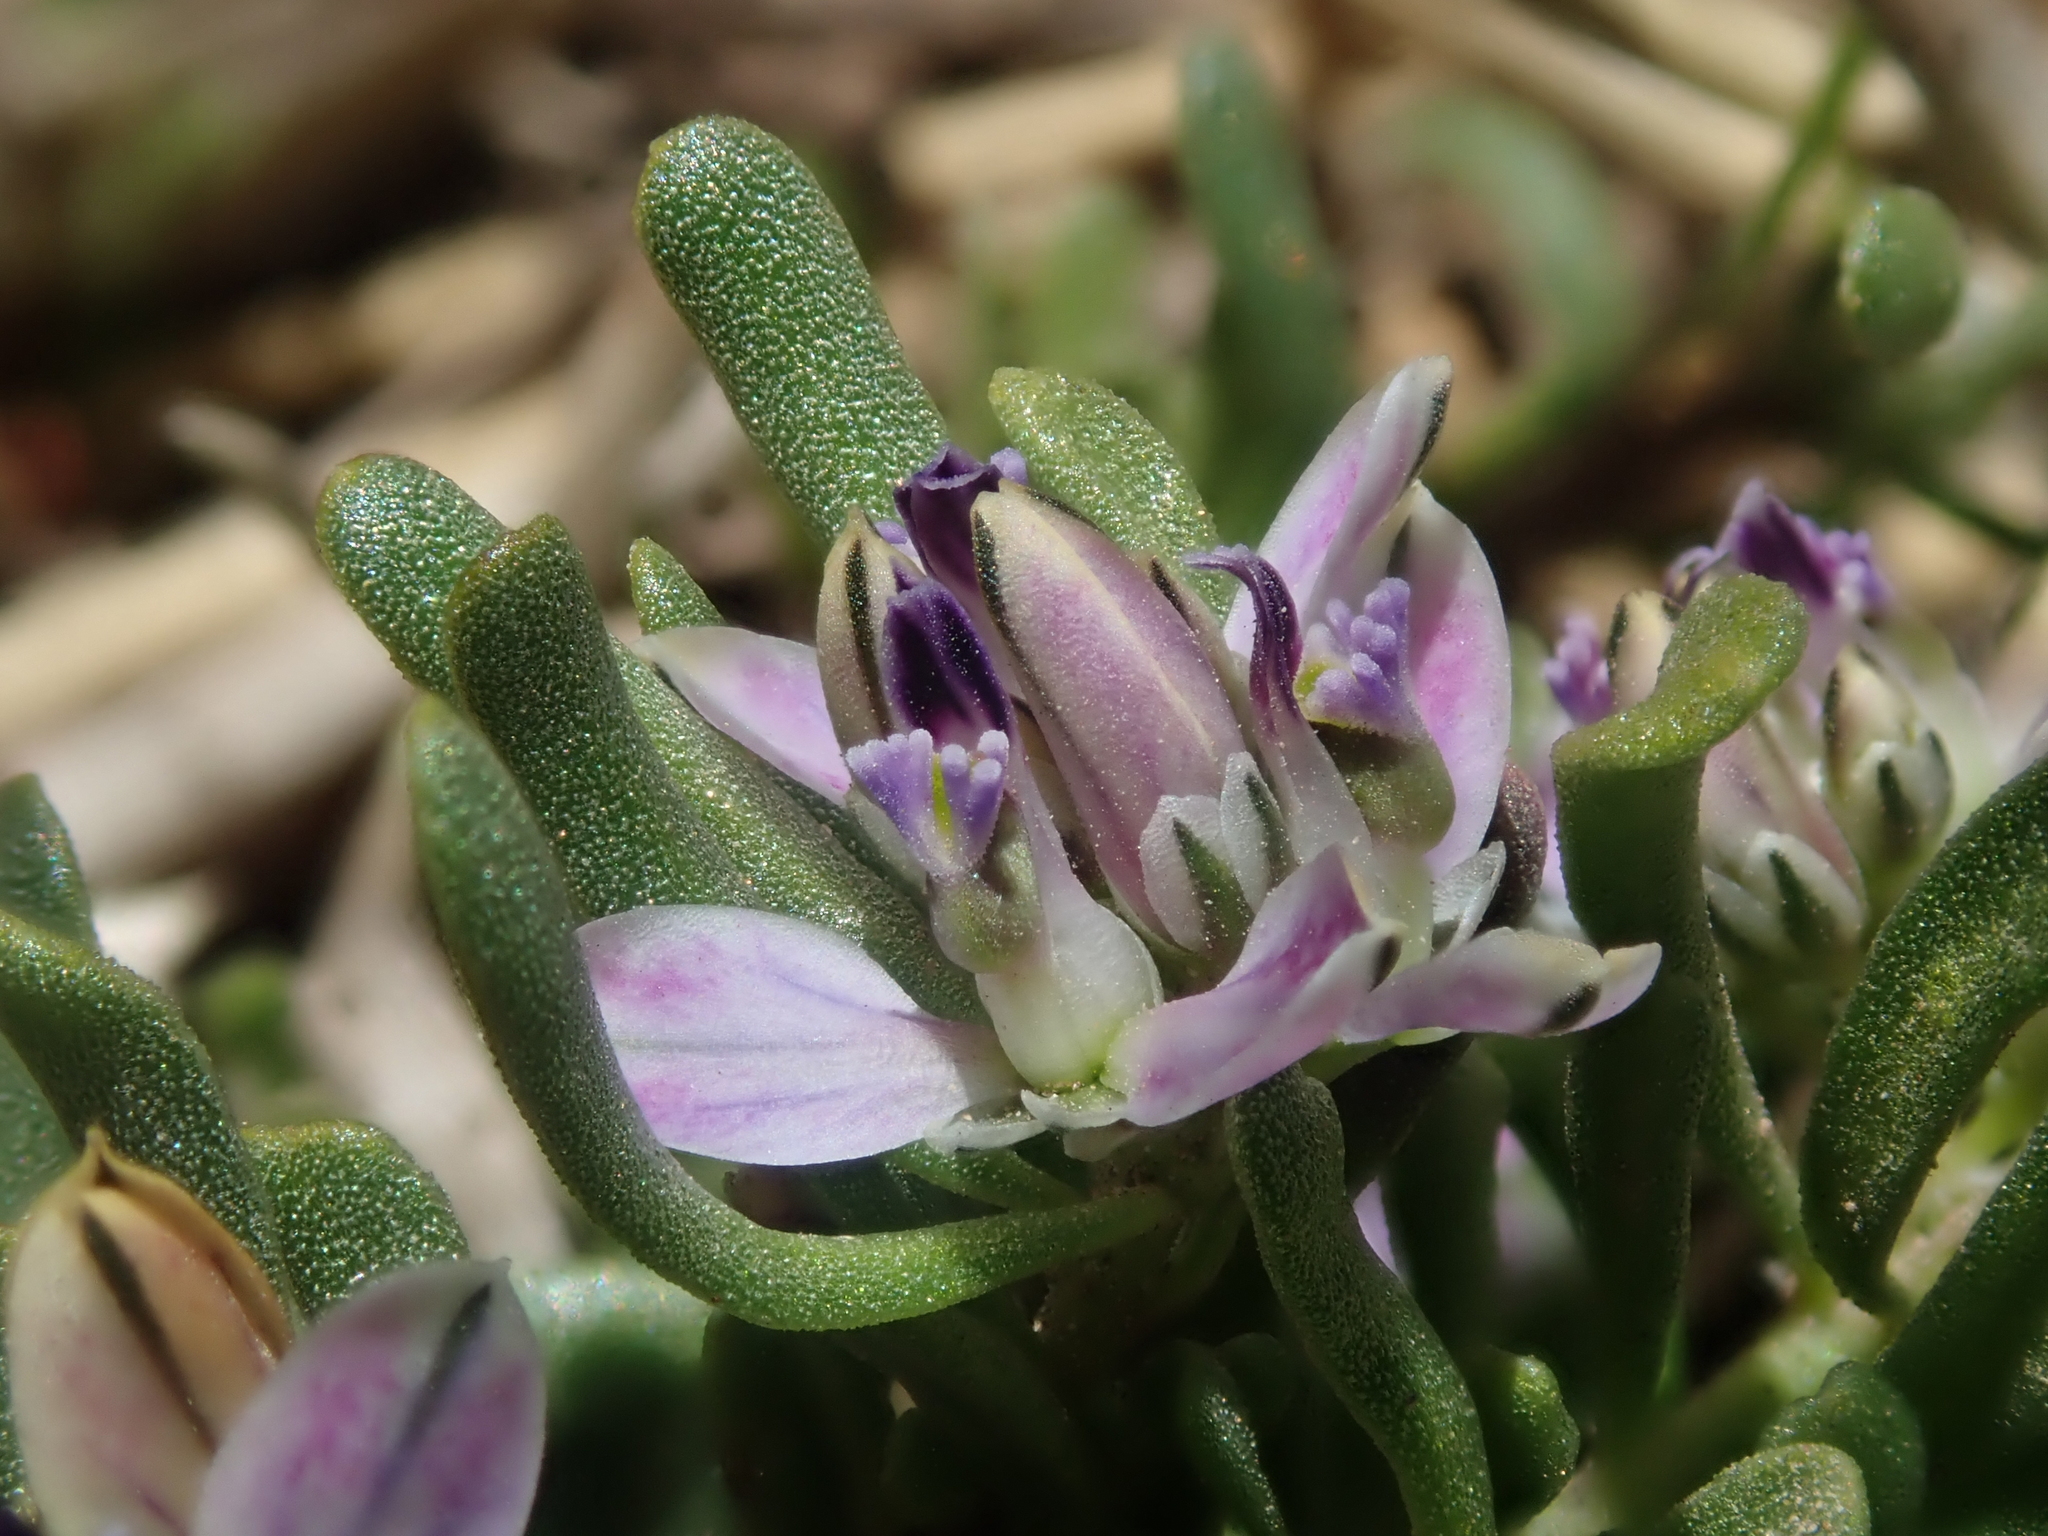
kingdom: Plantae
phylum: Tracheophyta
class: Magnoliopsida
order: Fabales
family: Polygalaceae
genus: Polygala
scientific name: Polygala salasiana
